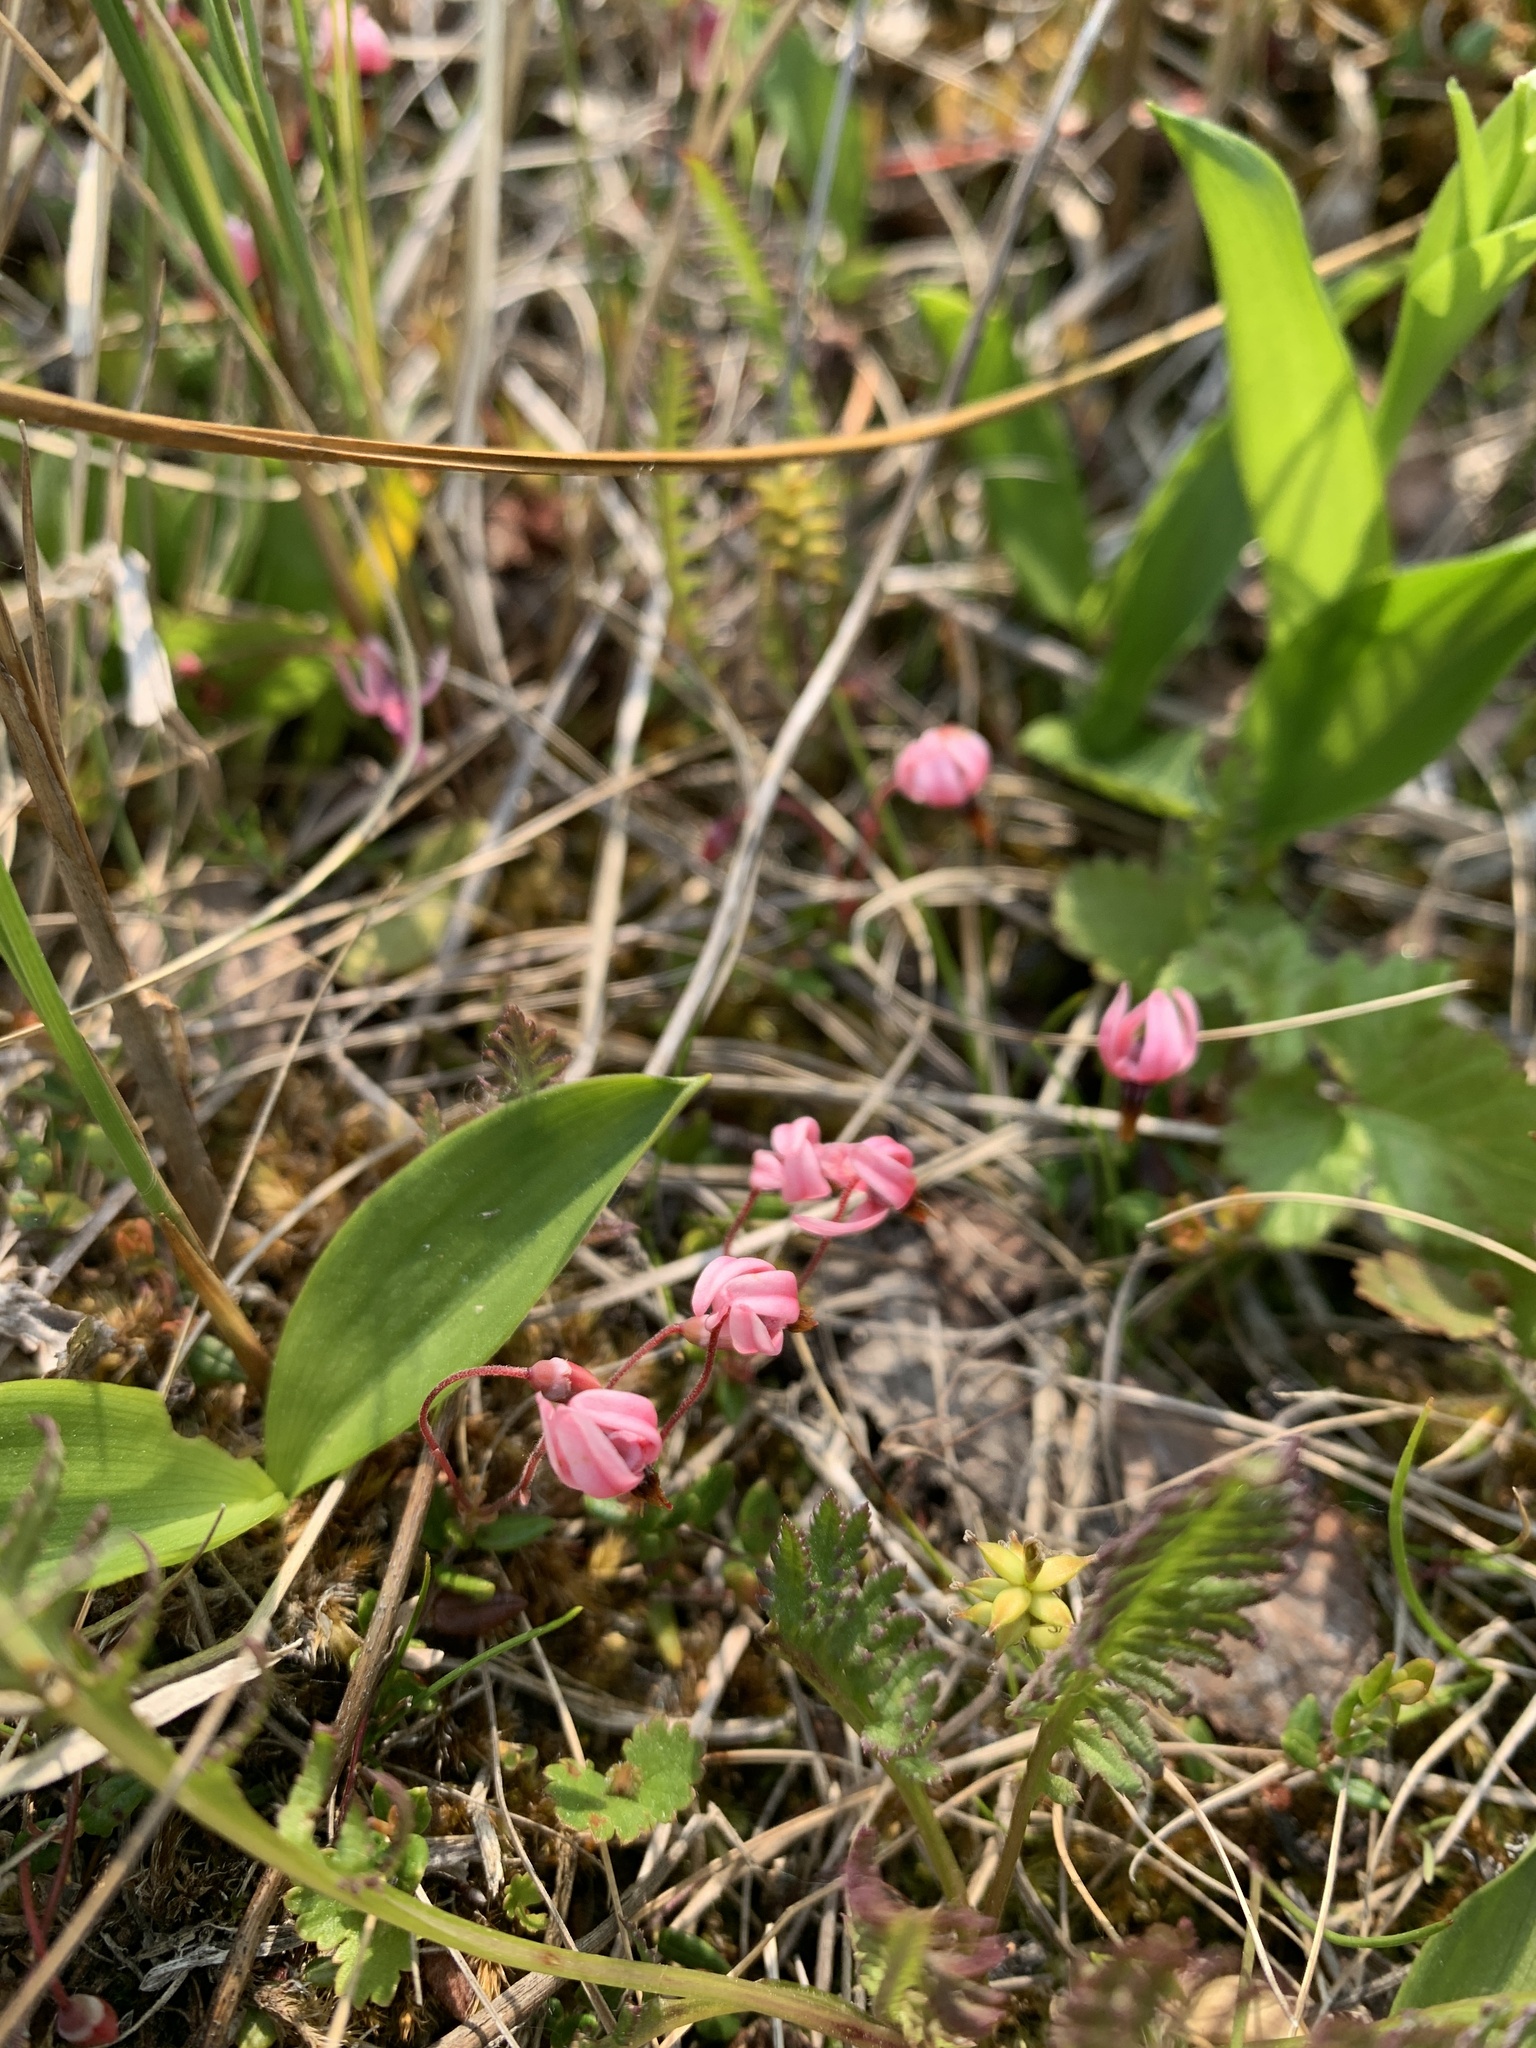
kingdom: Plantae
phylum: Tracheophyta
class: Magnoliopsida
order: Ericales
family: Ericaceae
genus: Vaccinium
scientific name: Vaccinium oxycoccos
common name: Cranberry
